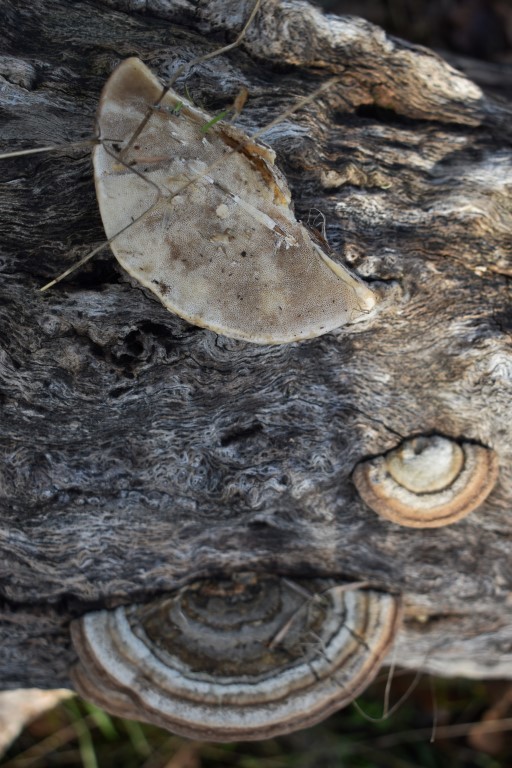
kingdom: Fungi
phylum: Basidiomycota
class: Agaricomycetes
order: Polyporales
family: Polyporaceae
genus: Trametes
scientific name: Trametes hirsuta
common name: Hairy bracket
